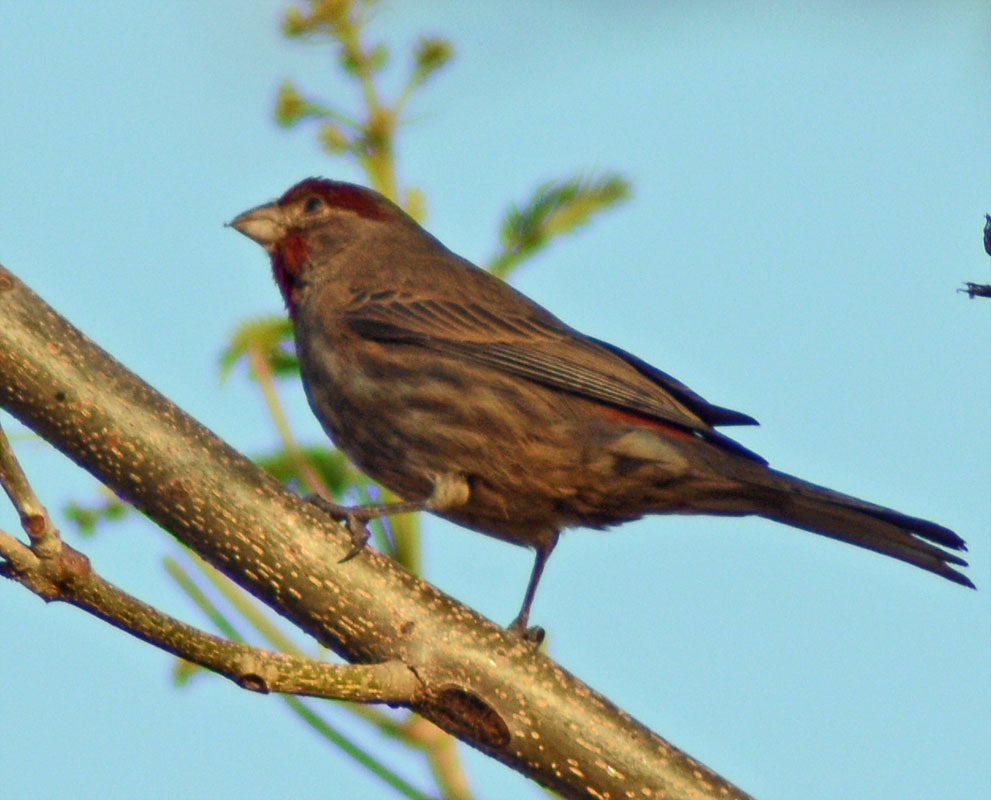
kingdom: Animalia
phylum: Chordata
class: Aves
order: Passeriformes
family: Fringillidae
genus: Haemorhous
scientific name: Haemorhous mexicanus
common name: House finch
